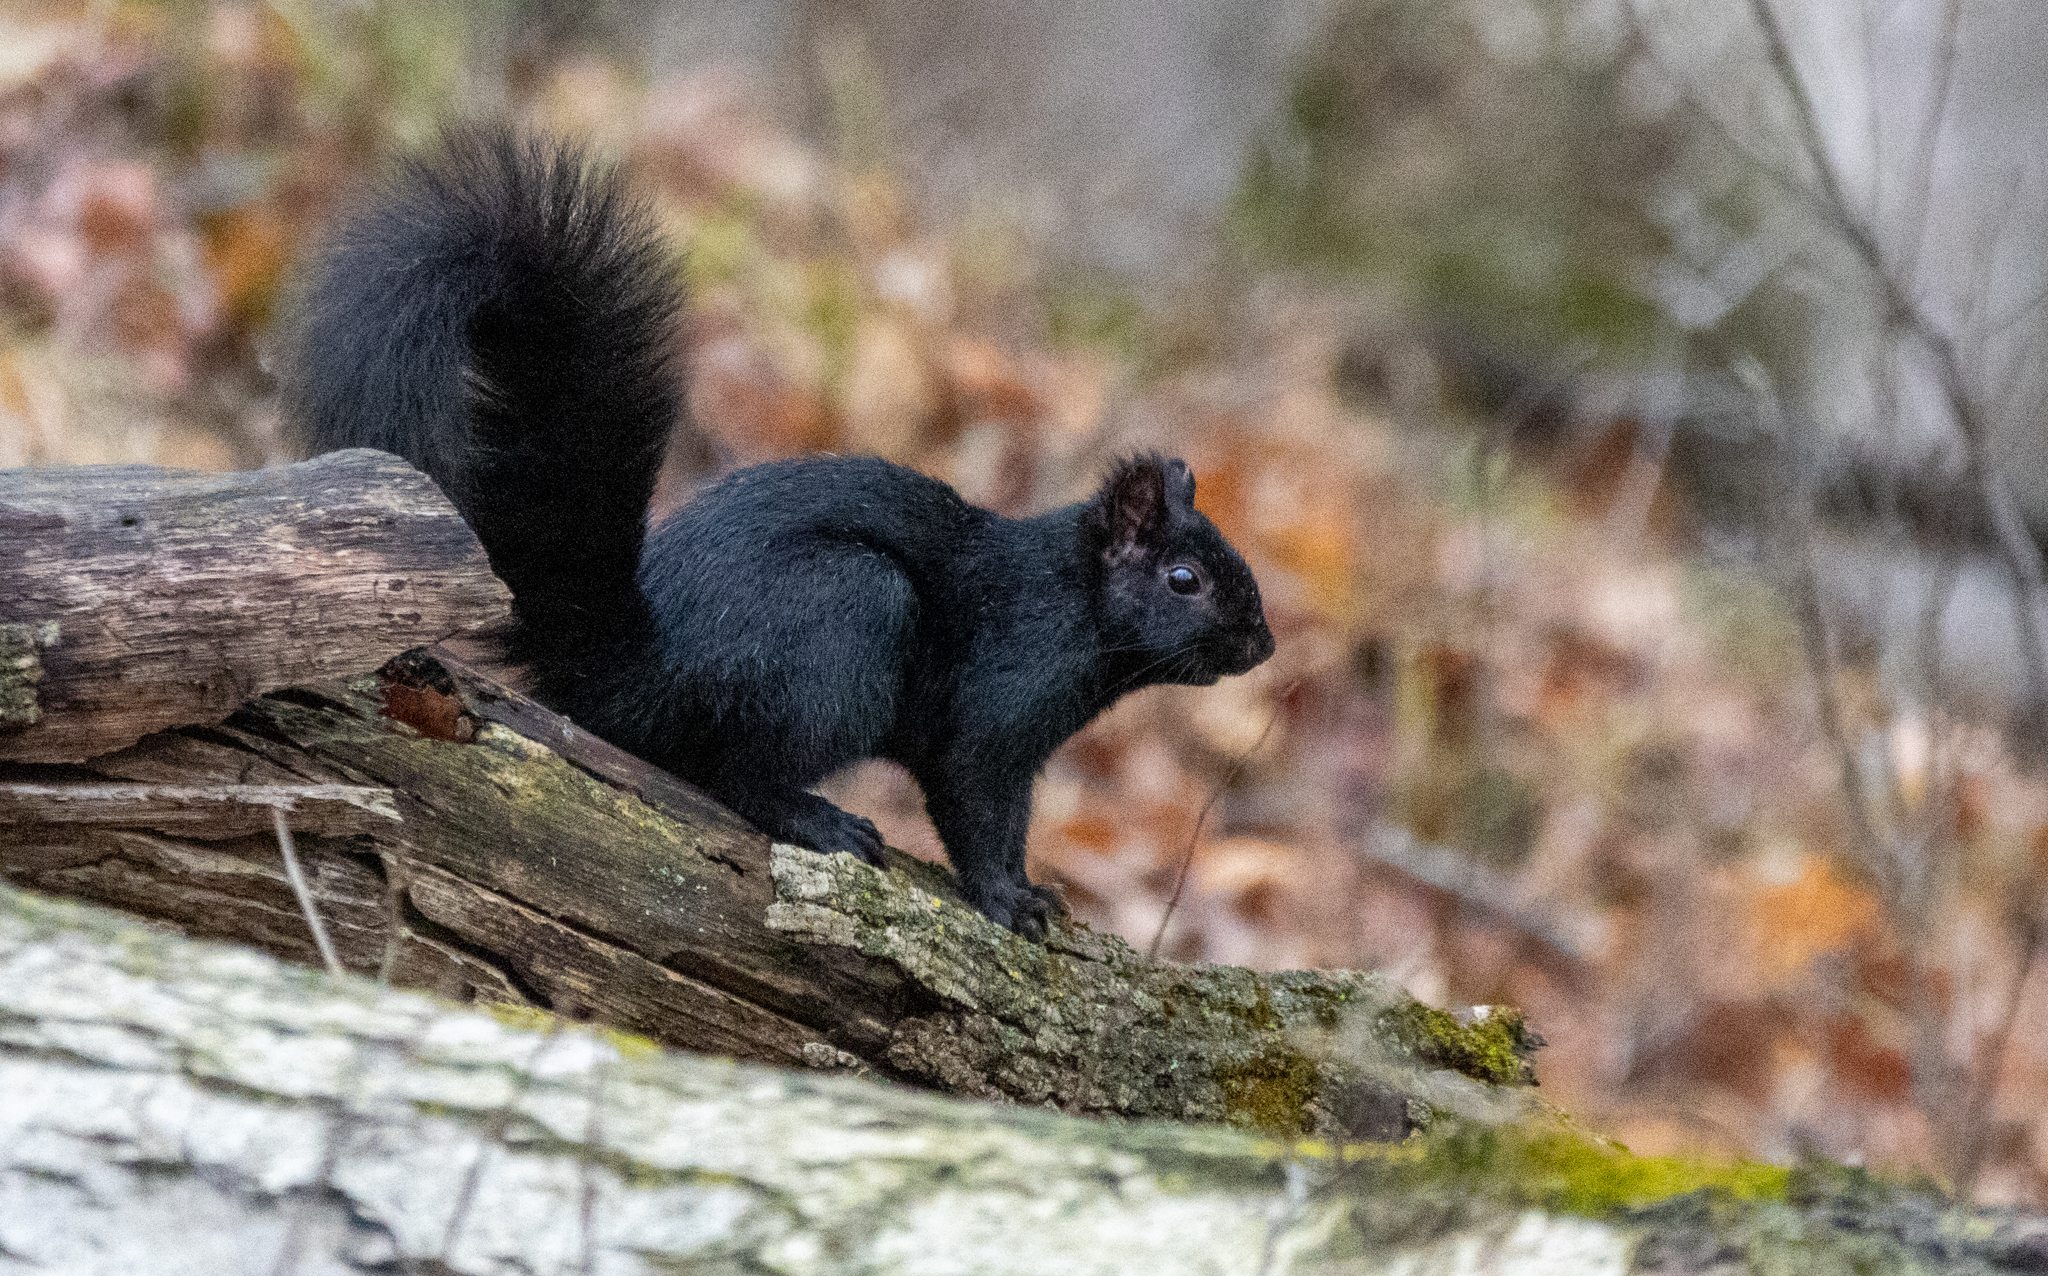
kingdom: Animalia
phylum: Chordata
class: Mammalia
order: Rodentia
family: Sciuridae
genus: Sciurus
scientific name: Sciurus carolinensis
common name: Eastern gray squirrel
